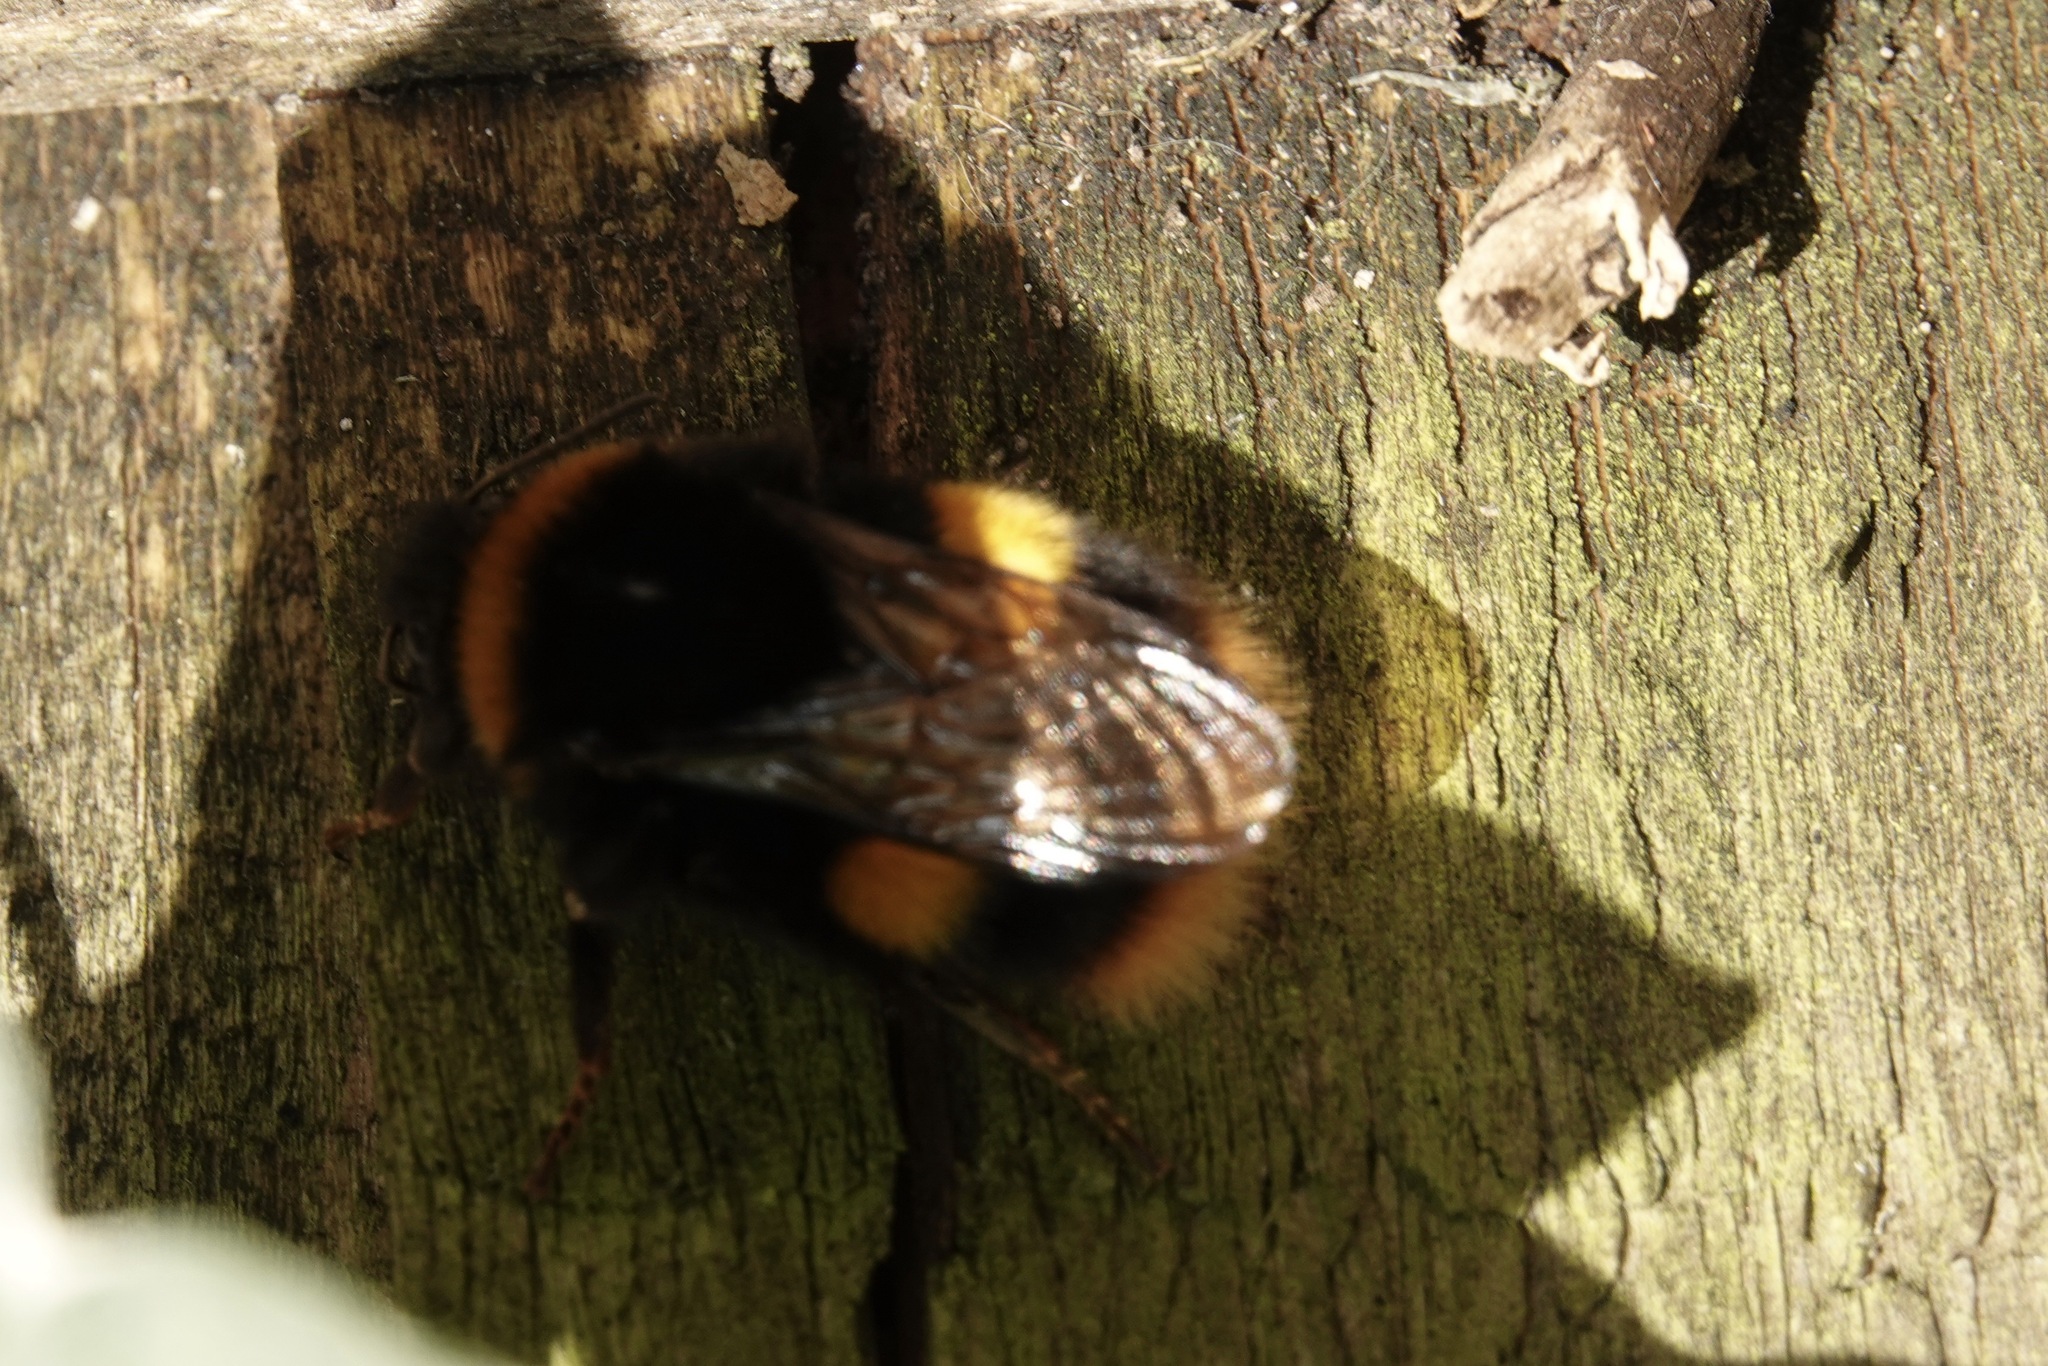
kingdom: Animalia
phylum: Arthropoda
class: Insecta
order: Hymenoptera
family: Apidae
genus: Bombus
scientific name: Bombus terrestris
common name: Buff-tailed bumblebee
